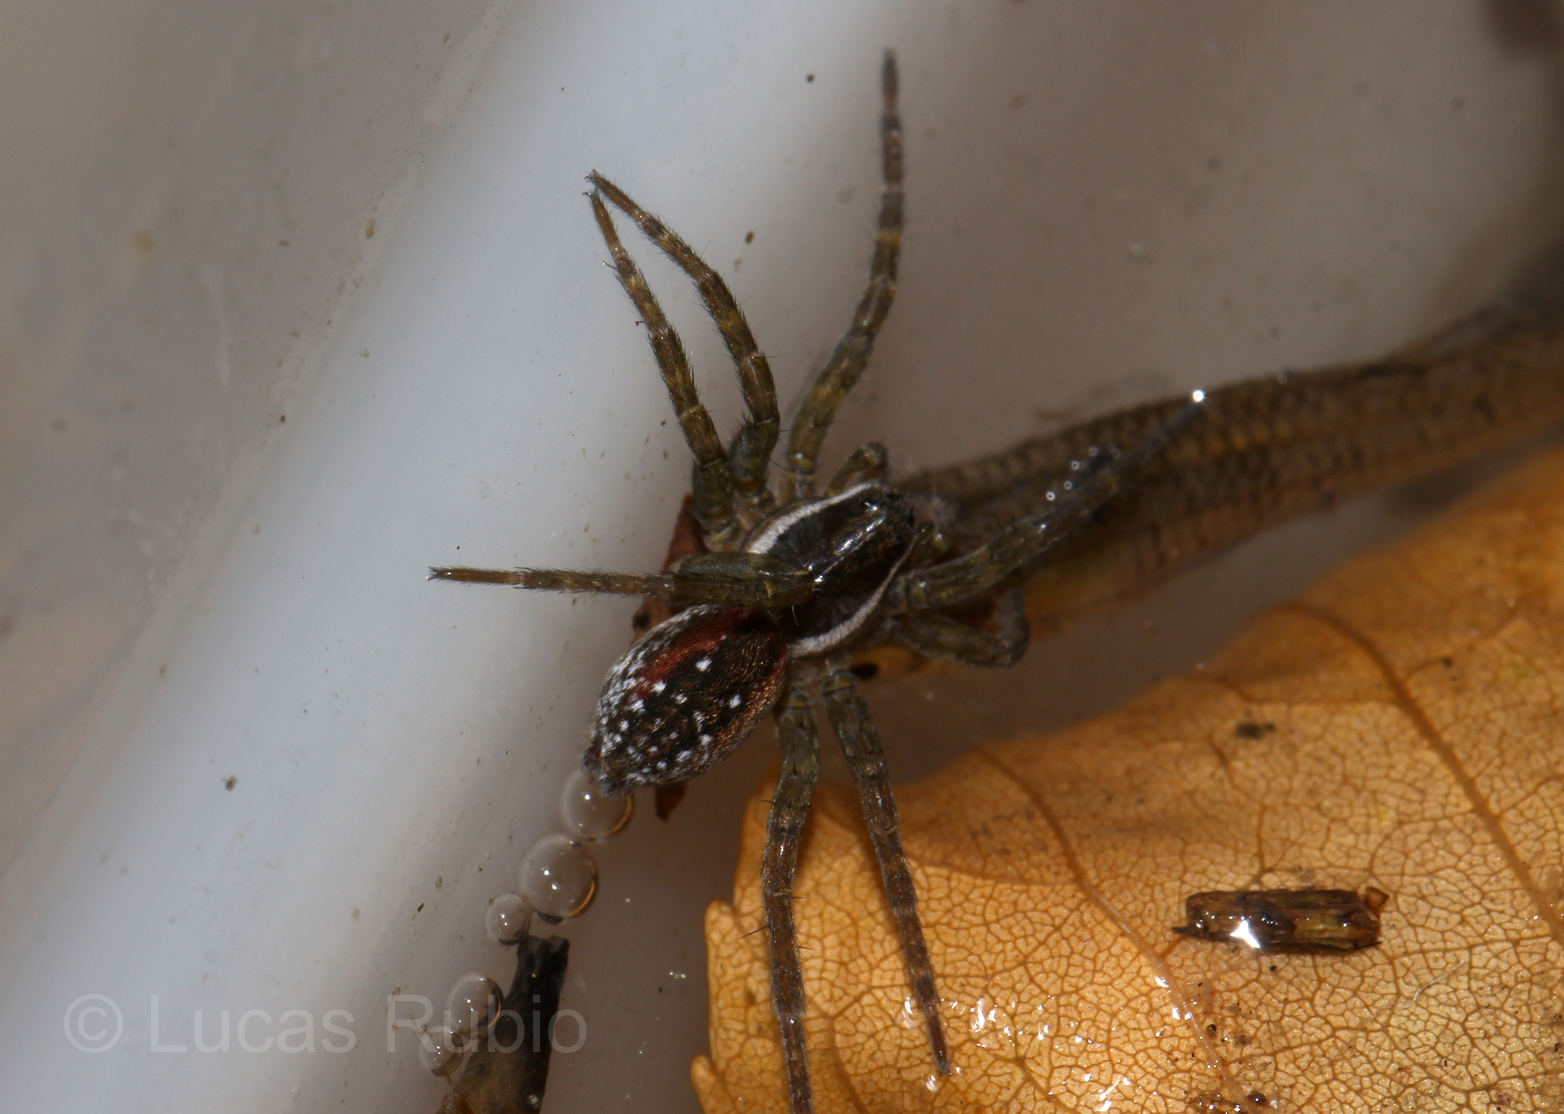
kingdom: Animalia
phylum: Arthropoda
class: Arachnida
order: Araneae
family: Lycosidae
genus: Diapontia
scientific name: Diapontia uruguayensis
